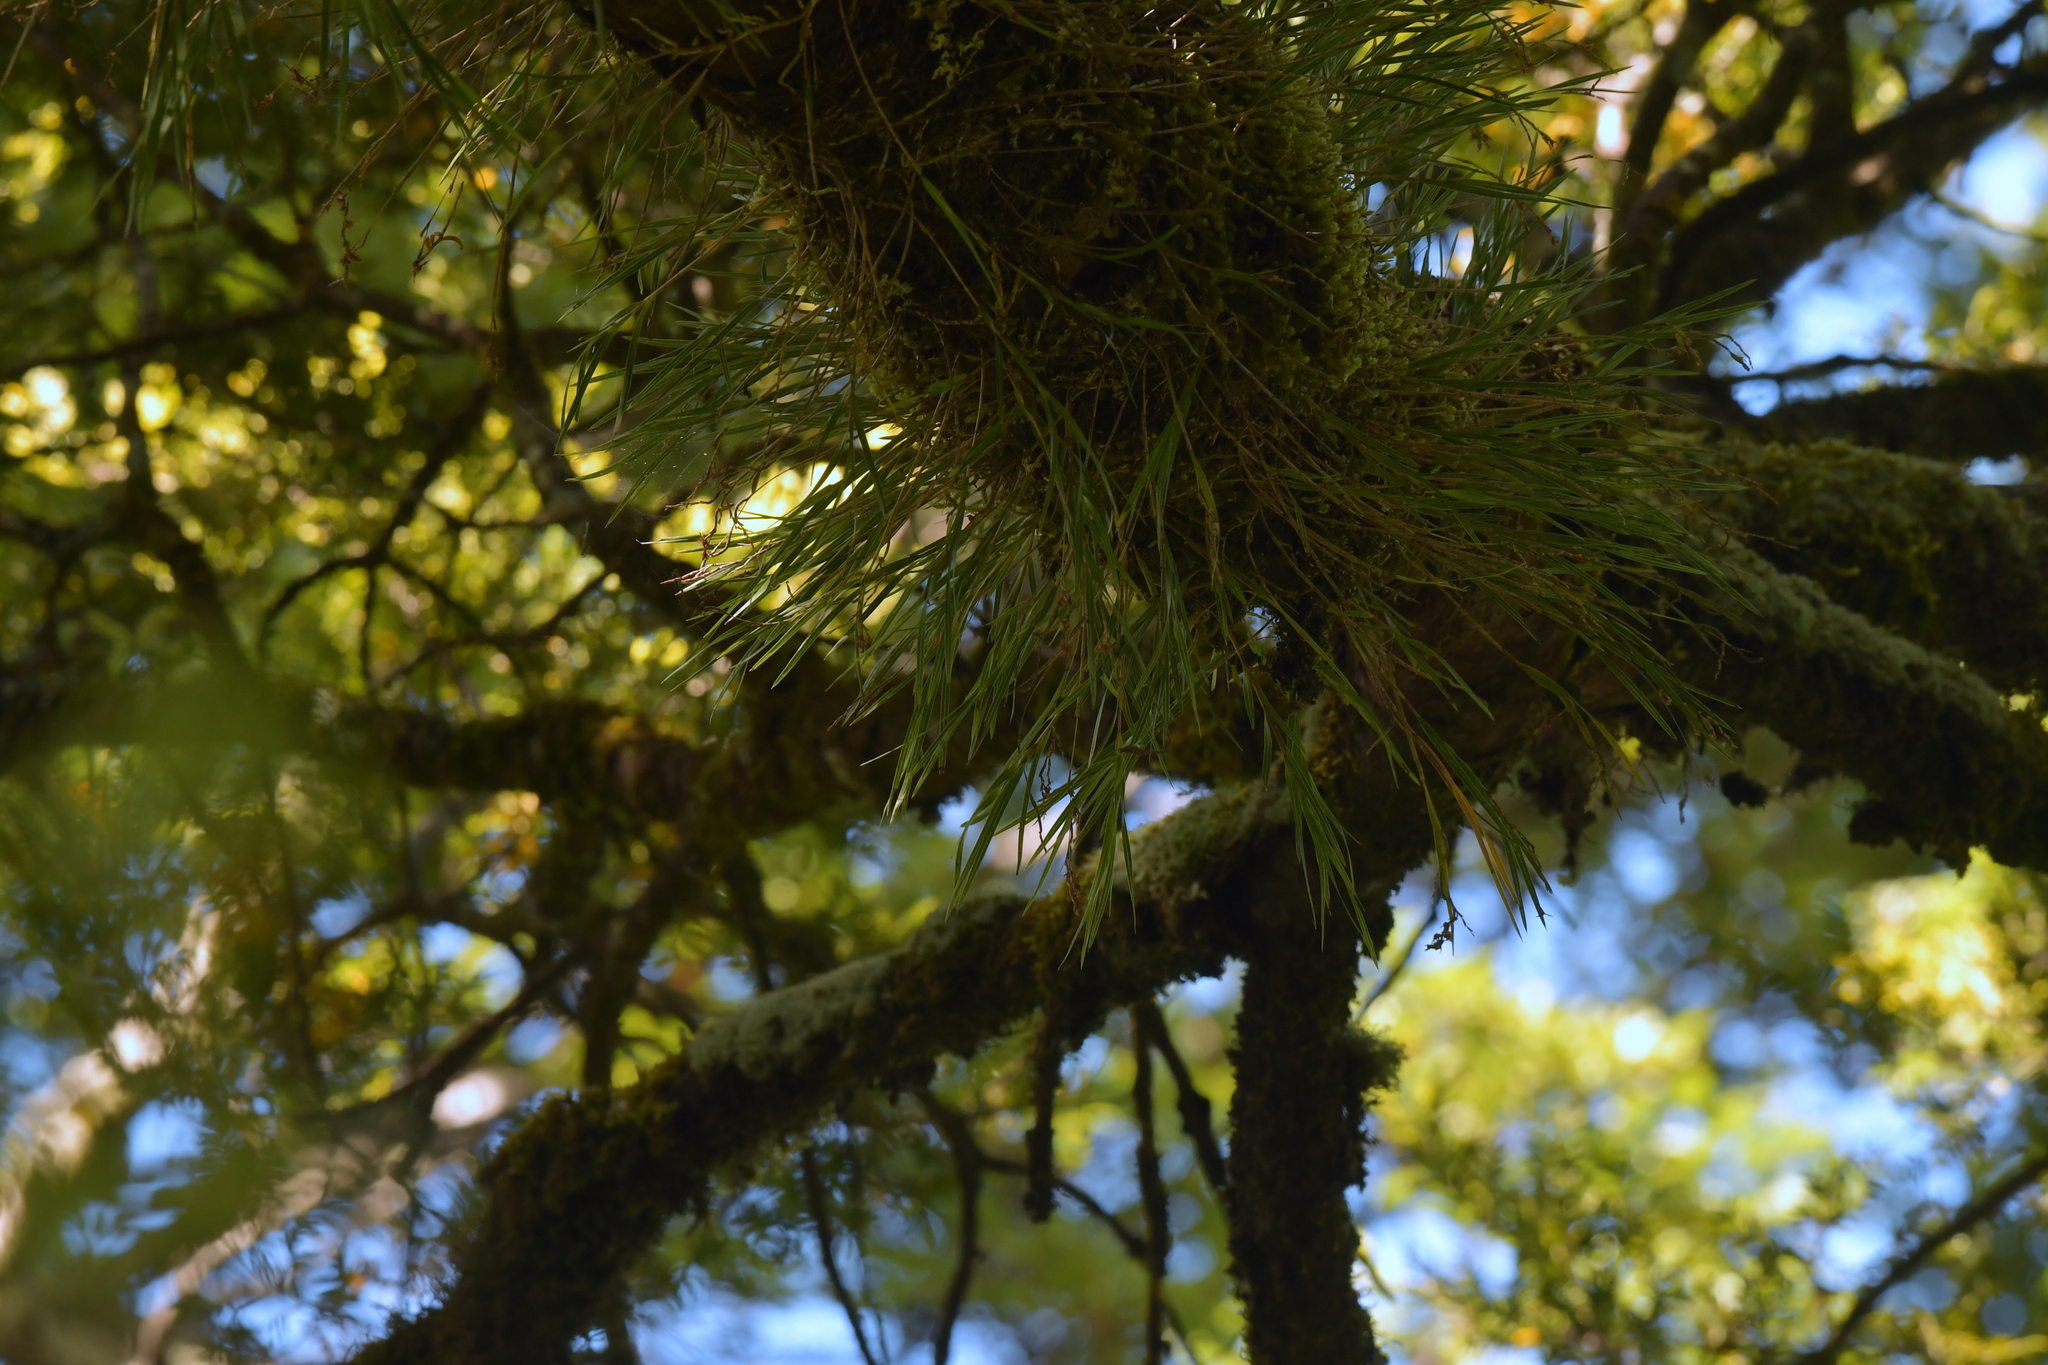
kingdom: Plantae
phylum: Tracheophyta
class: Liliopsida
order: Asparagales
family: Orchidaceae
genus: Earina
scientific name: Earina mucronata
